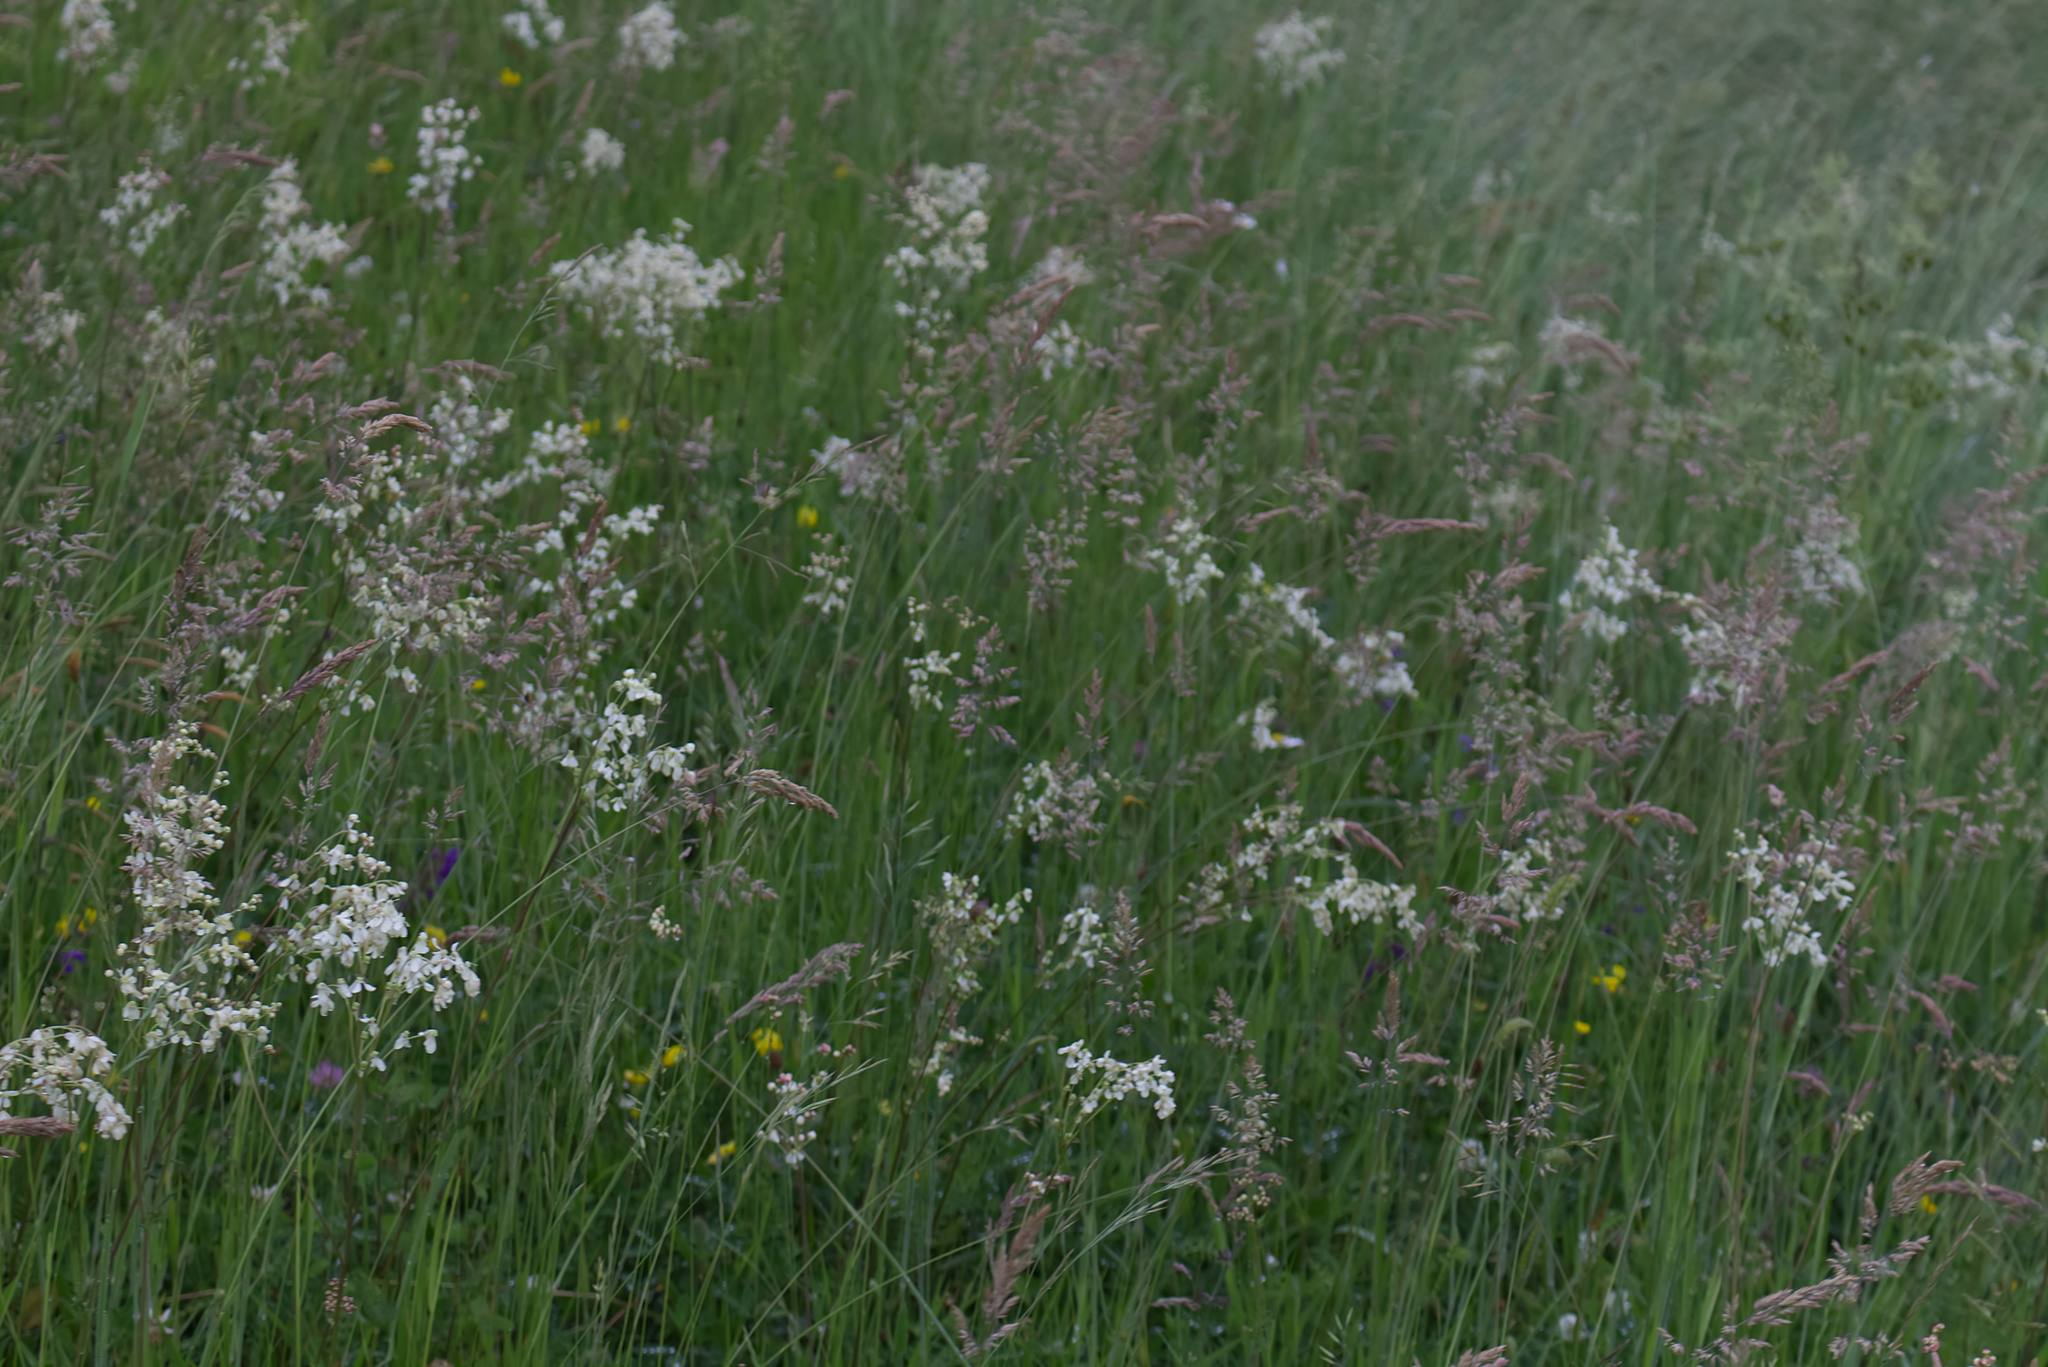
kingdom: Plantae
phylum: Tracheophyta
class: Magnoliopsida
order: Rosales
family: Rosaceae
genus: Filipendula
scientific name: Filipendula vulgaris
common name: Dropwort
